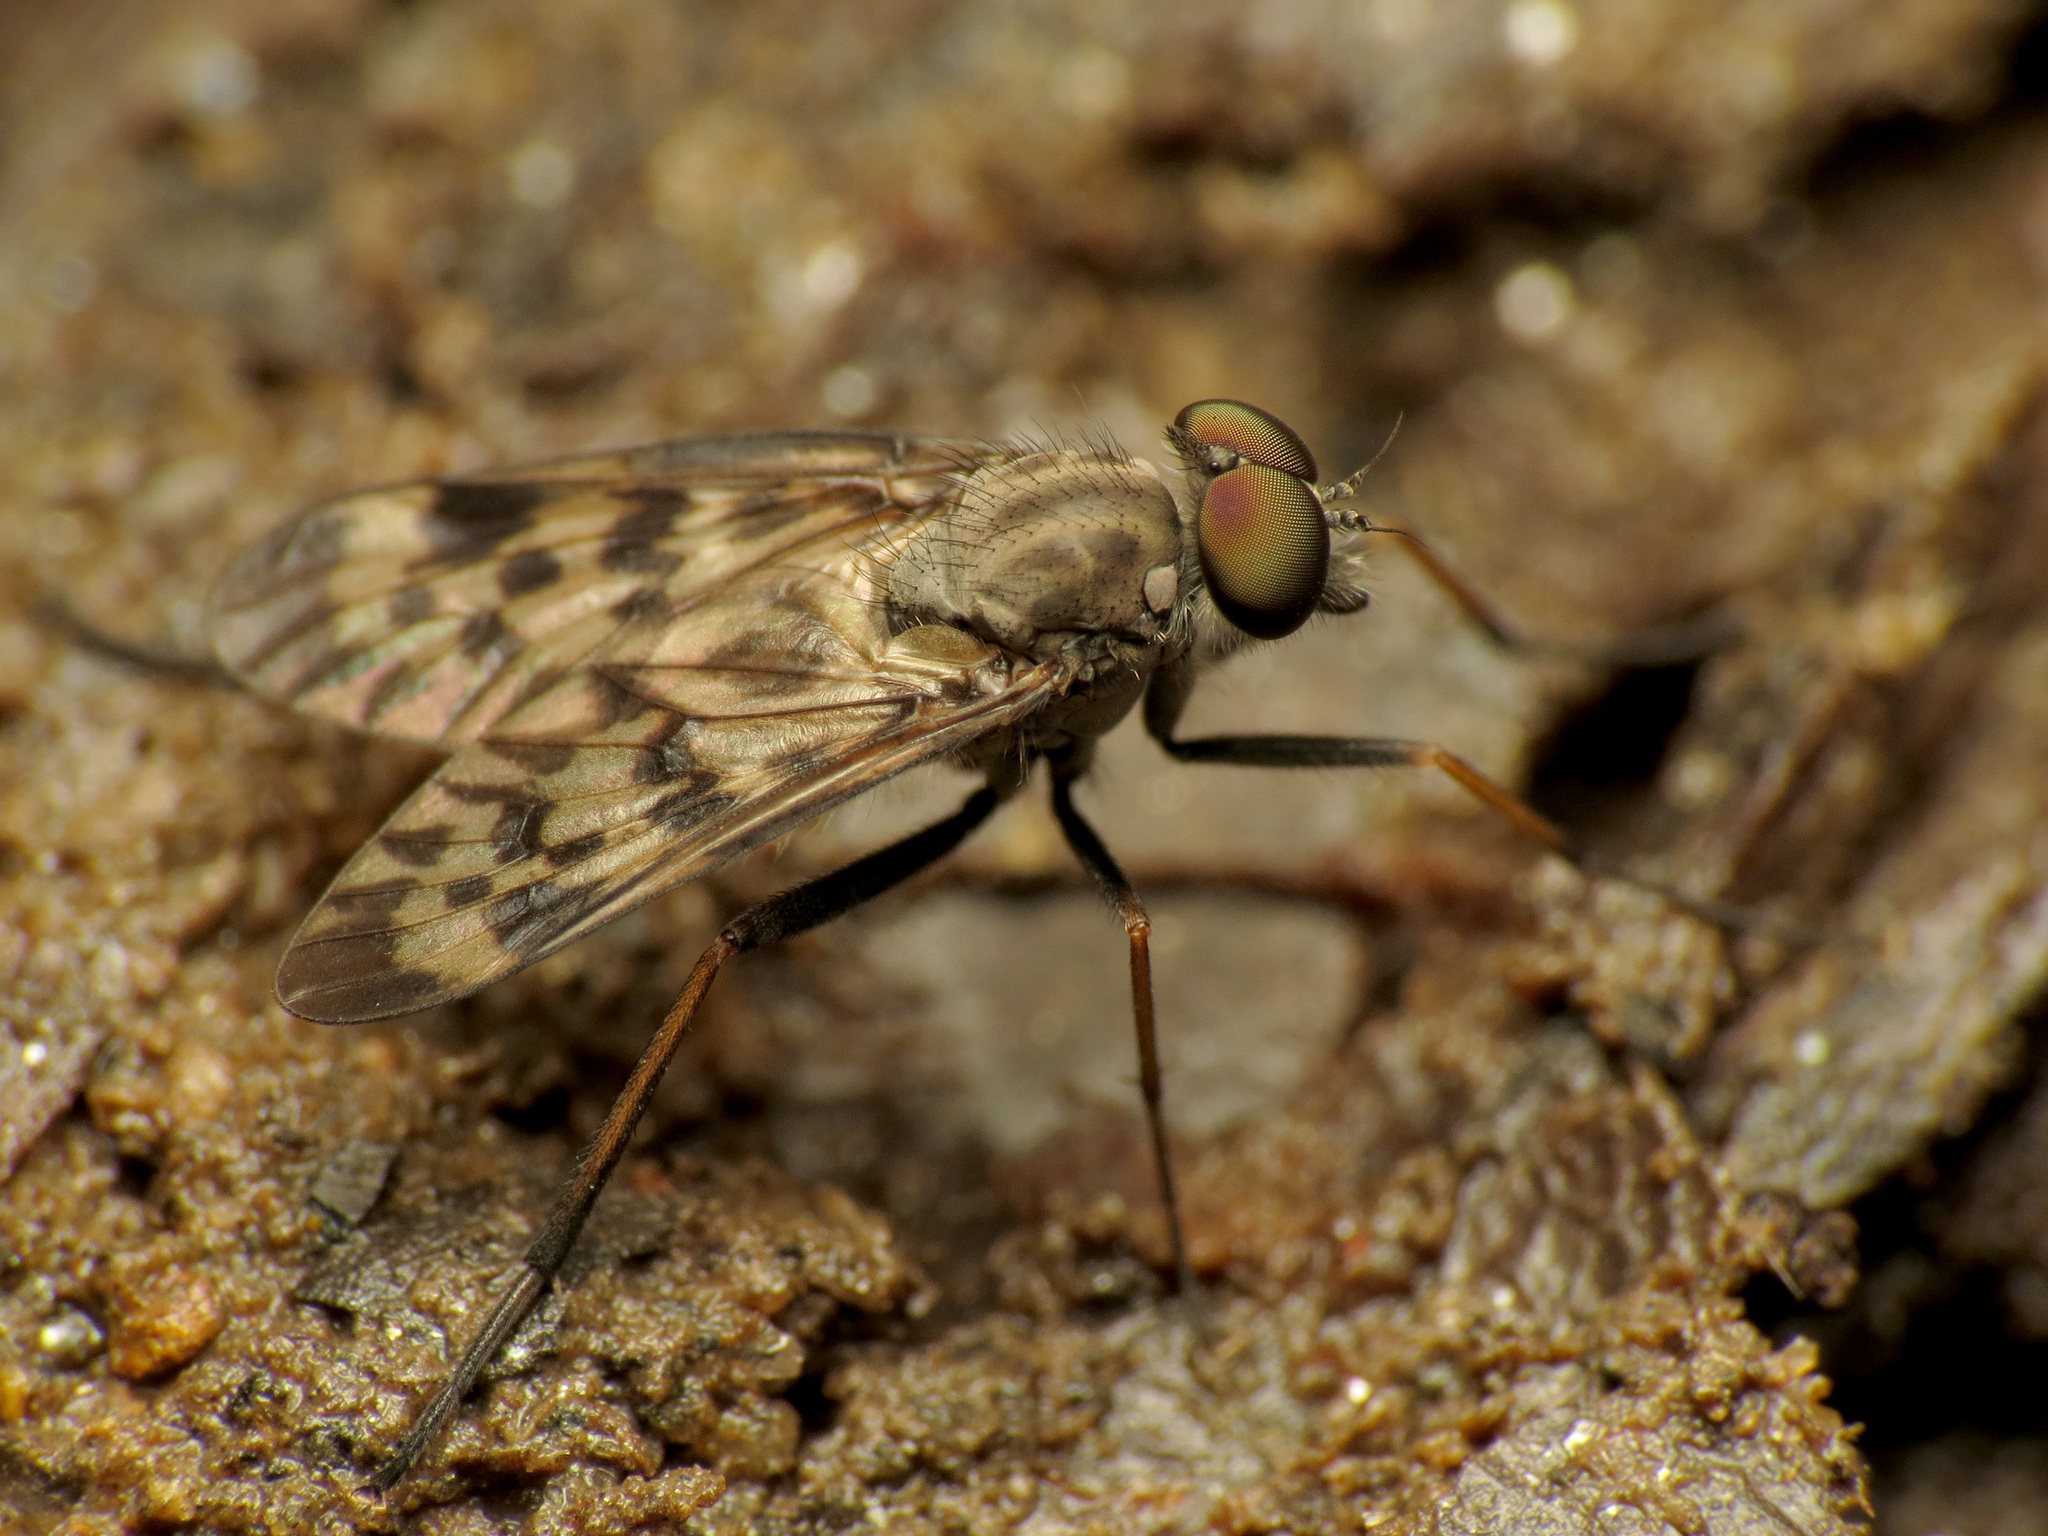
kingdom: Animalia
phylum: Arthropoda
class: Insecta
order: Diptera
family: Rhagionidae
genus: Rhagio
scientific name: Rhagio punctipennis
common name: Lesser variegated snipe fly
